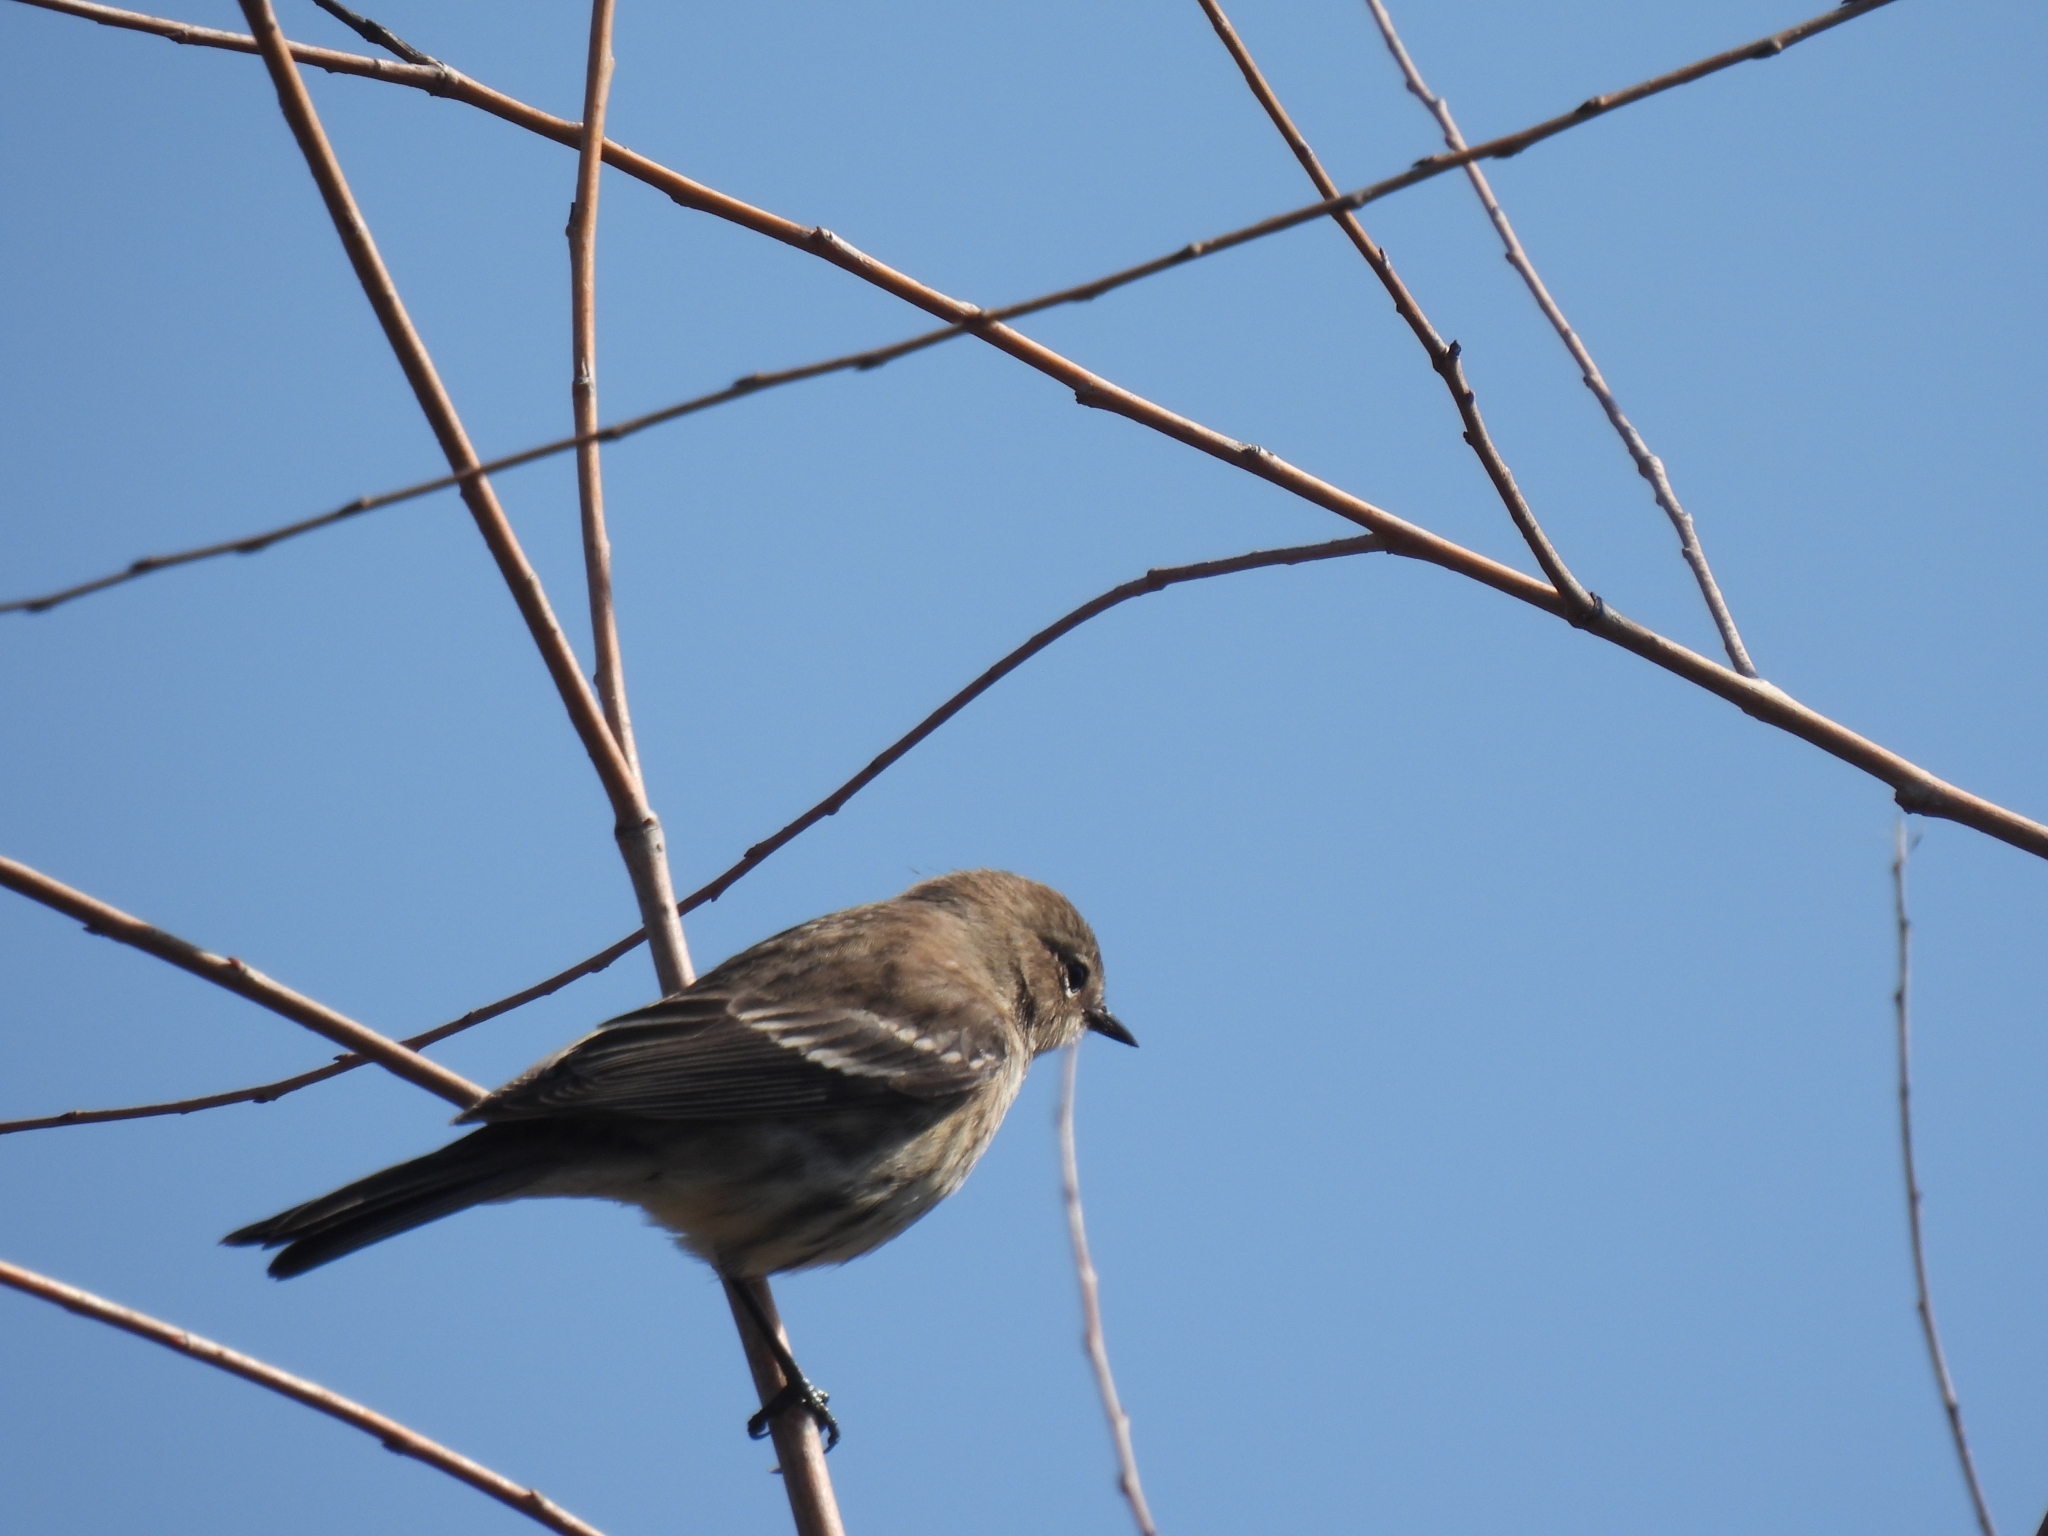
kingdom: Animalia
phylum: Chordata
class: Aves
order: Passeriformes
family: Parulidae
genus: Setophaga
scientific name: Setophaga coronata
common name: Myrtle warbler
